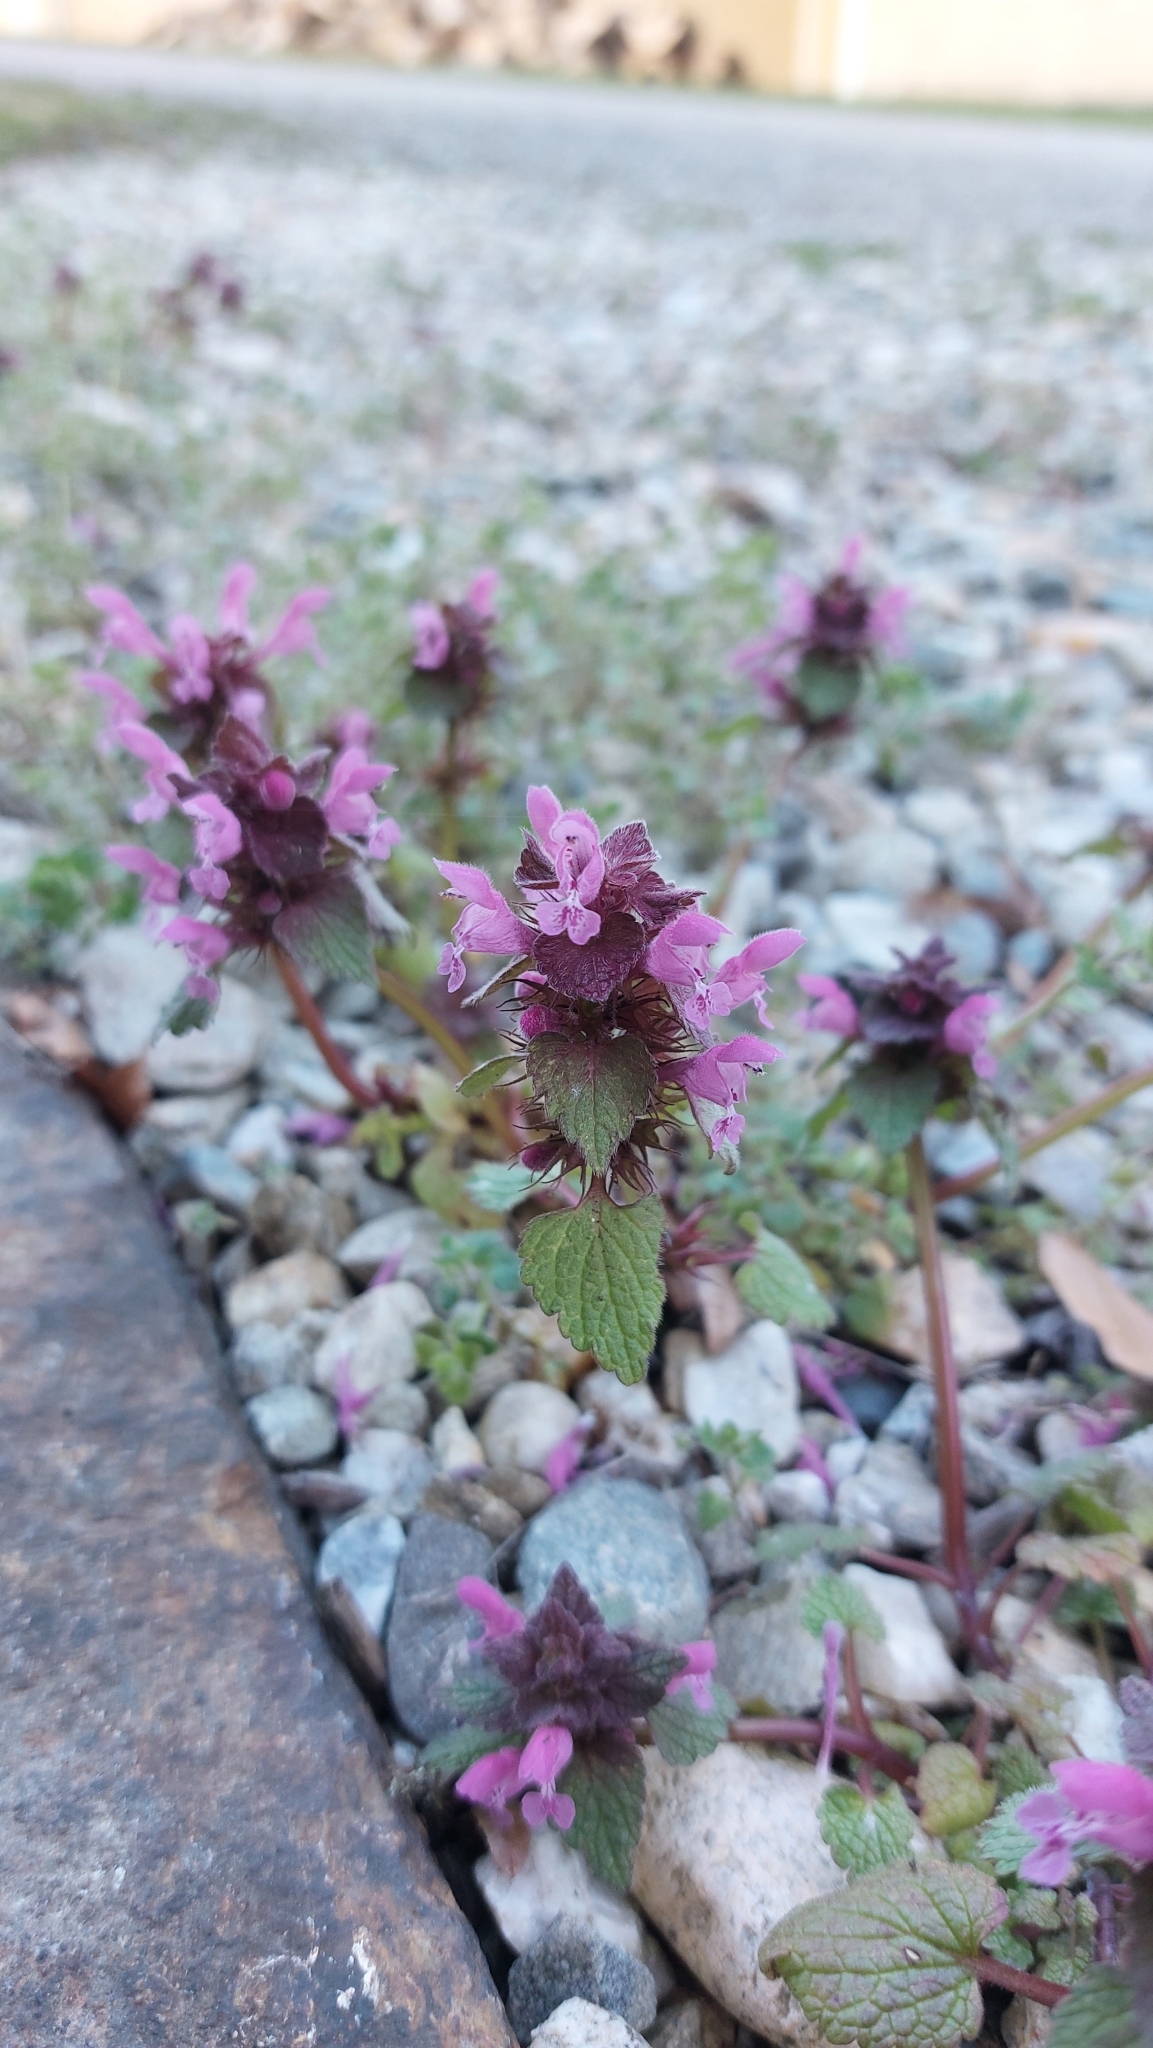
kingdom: Plantae
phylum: Tracheophyta
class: Magnoliopsida
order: Lamiales
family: Lamiaceae
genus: Lamium
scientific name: Lamium purpureum
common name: Red dead-nettle
